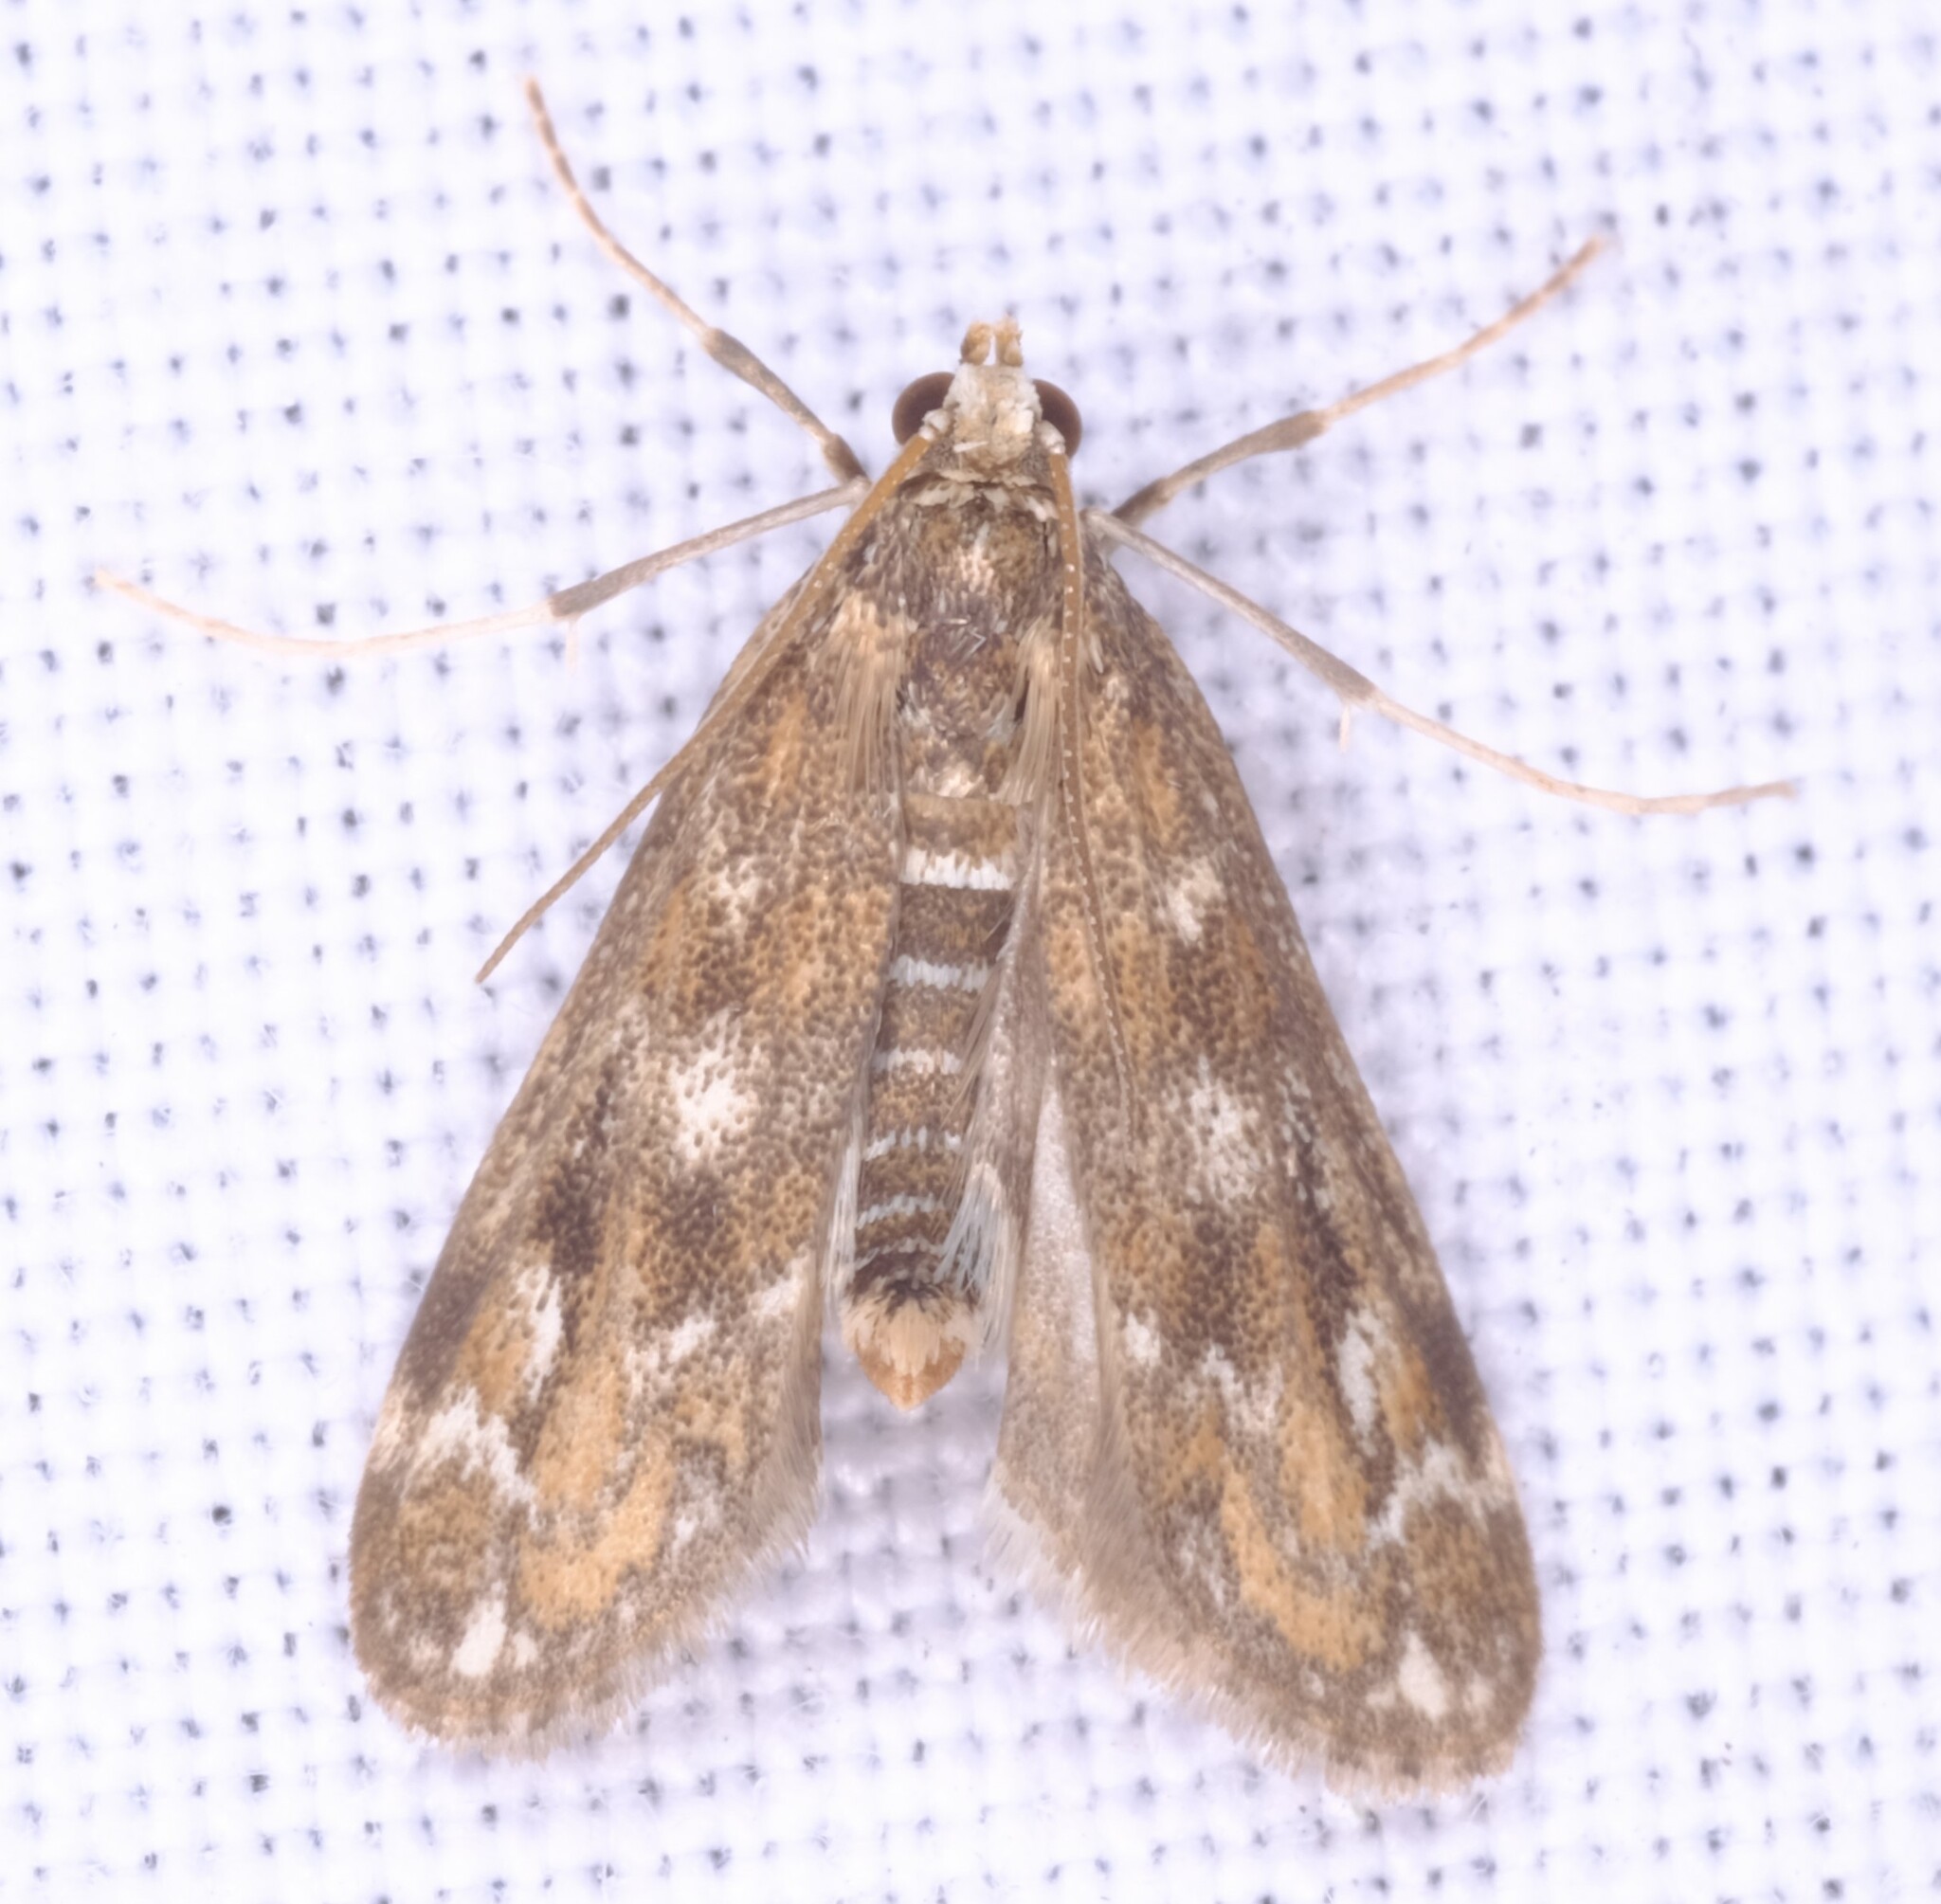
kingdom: Animalia
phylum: Arthropoda
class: Insecta
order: Lepidoptera
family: Crambidae
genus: Hygraula
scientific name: Hygraula nitens
